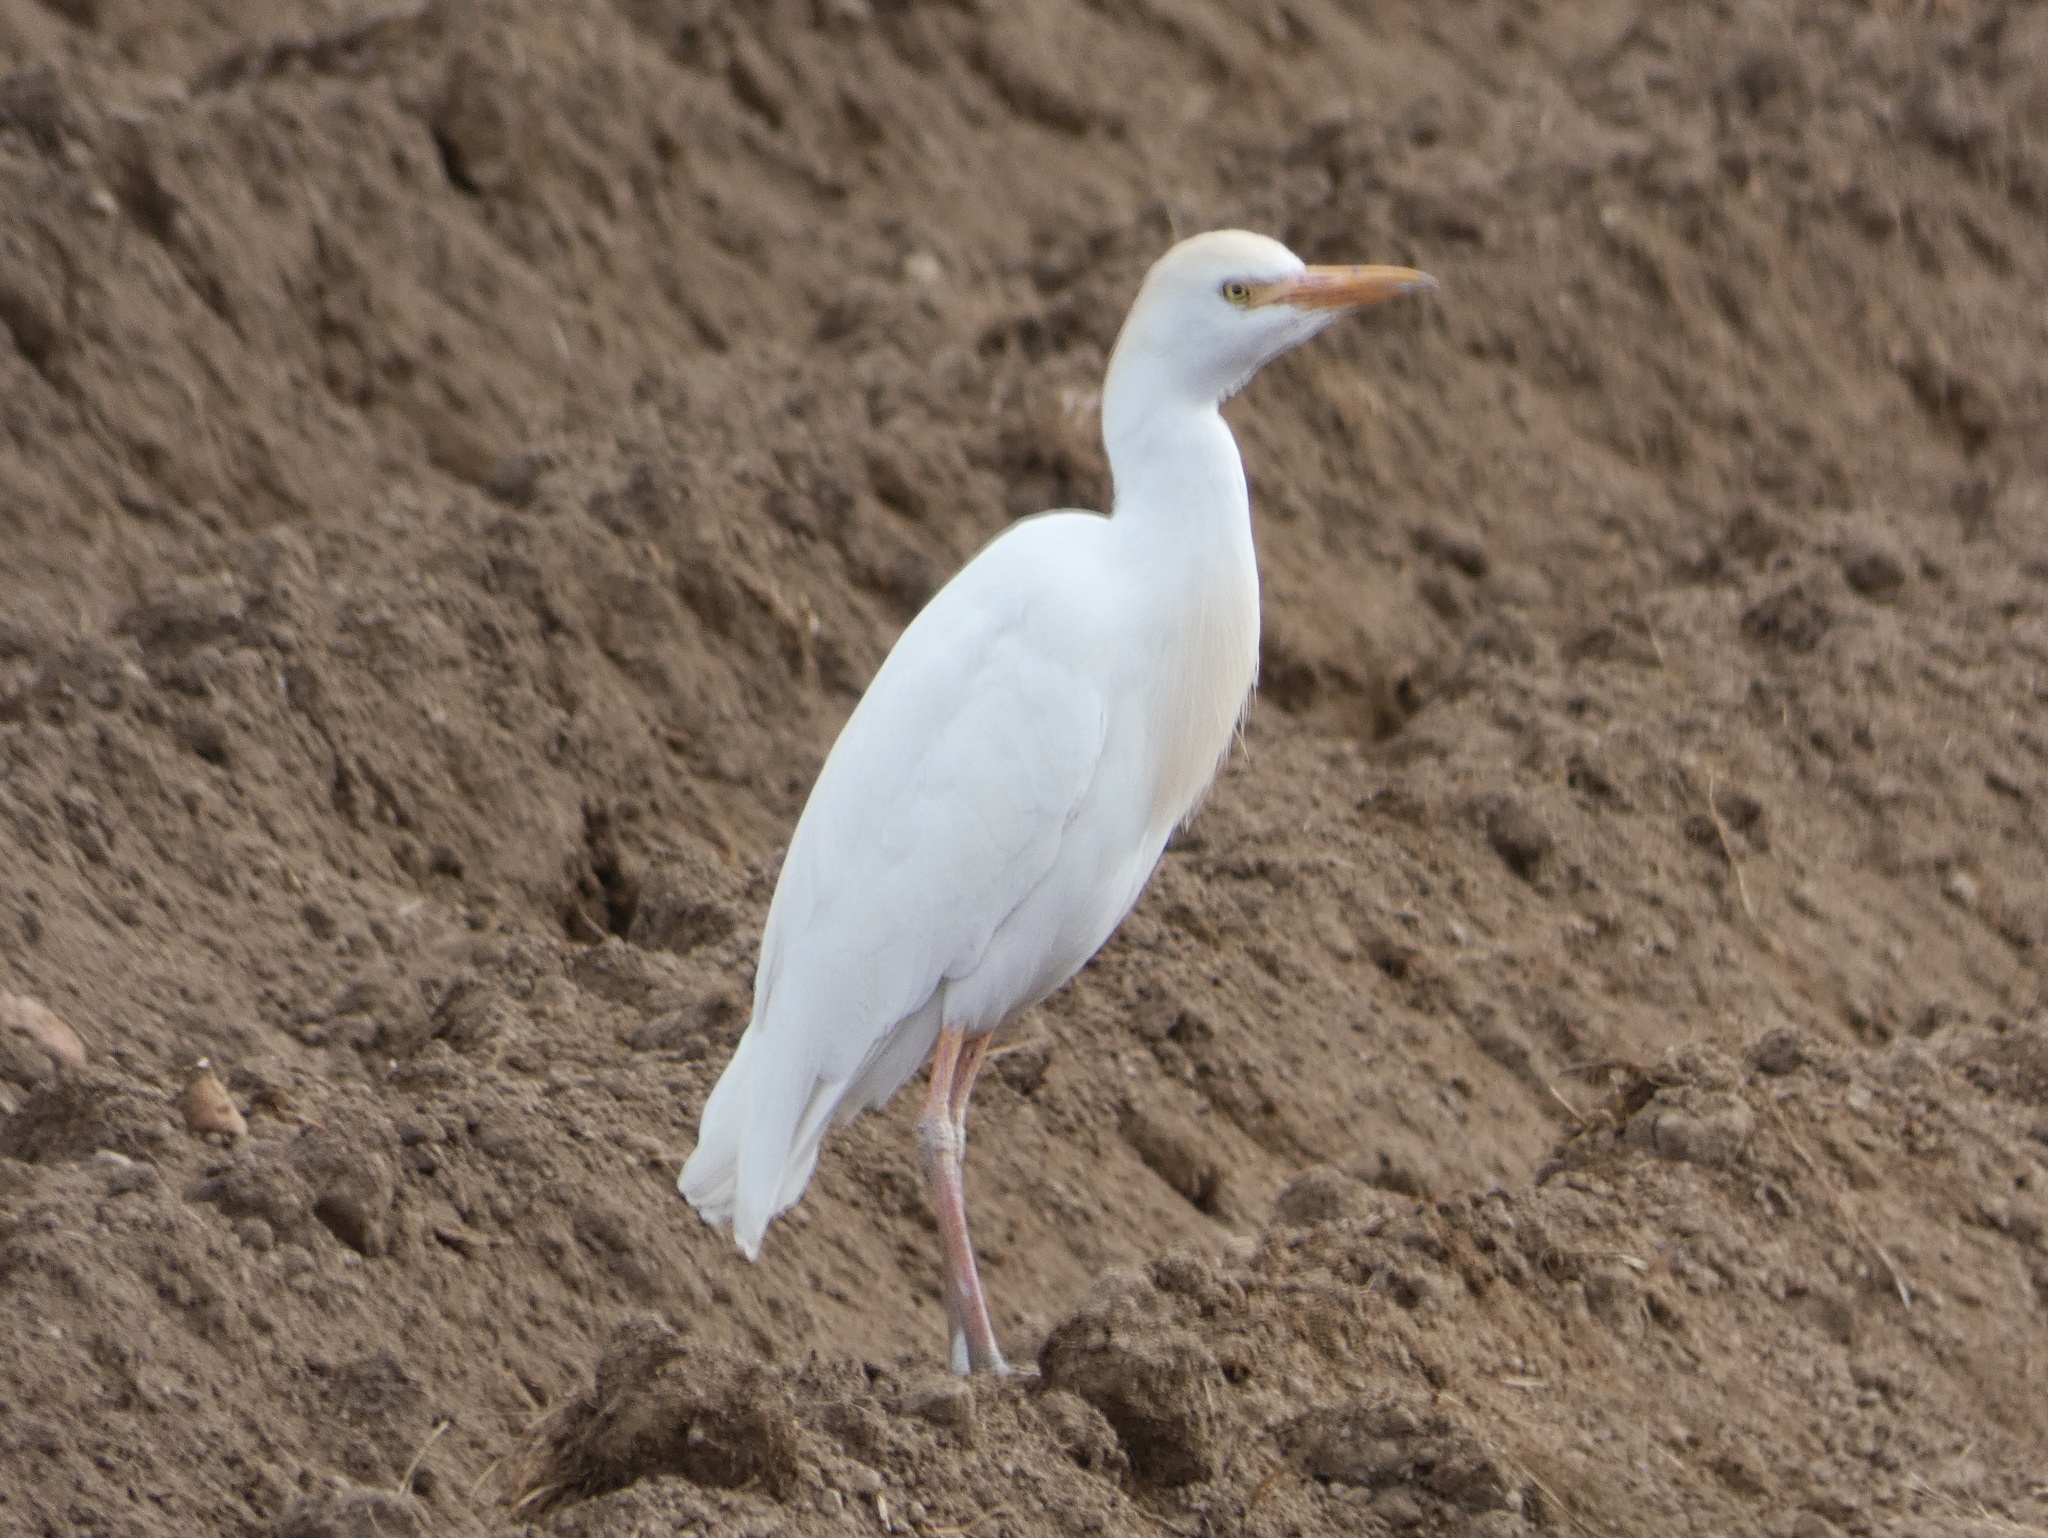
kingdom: Animalia
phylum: Chordata
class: Aves
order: Pelecaniformes
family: Ardeidae
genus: Bubulcus
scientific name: Bubulcus ibis
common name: Cattle egret
